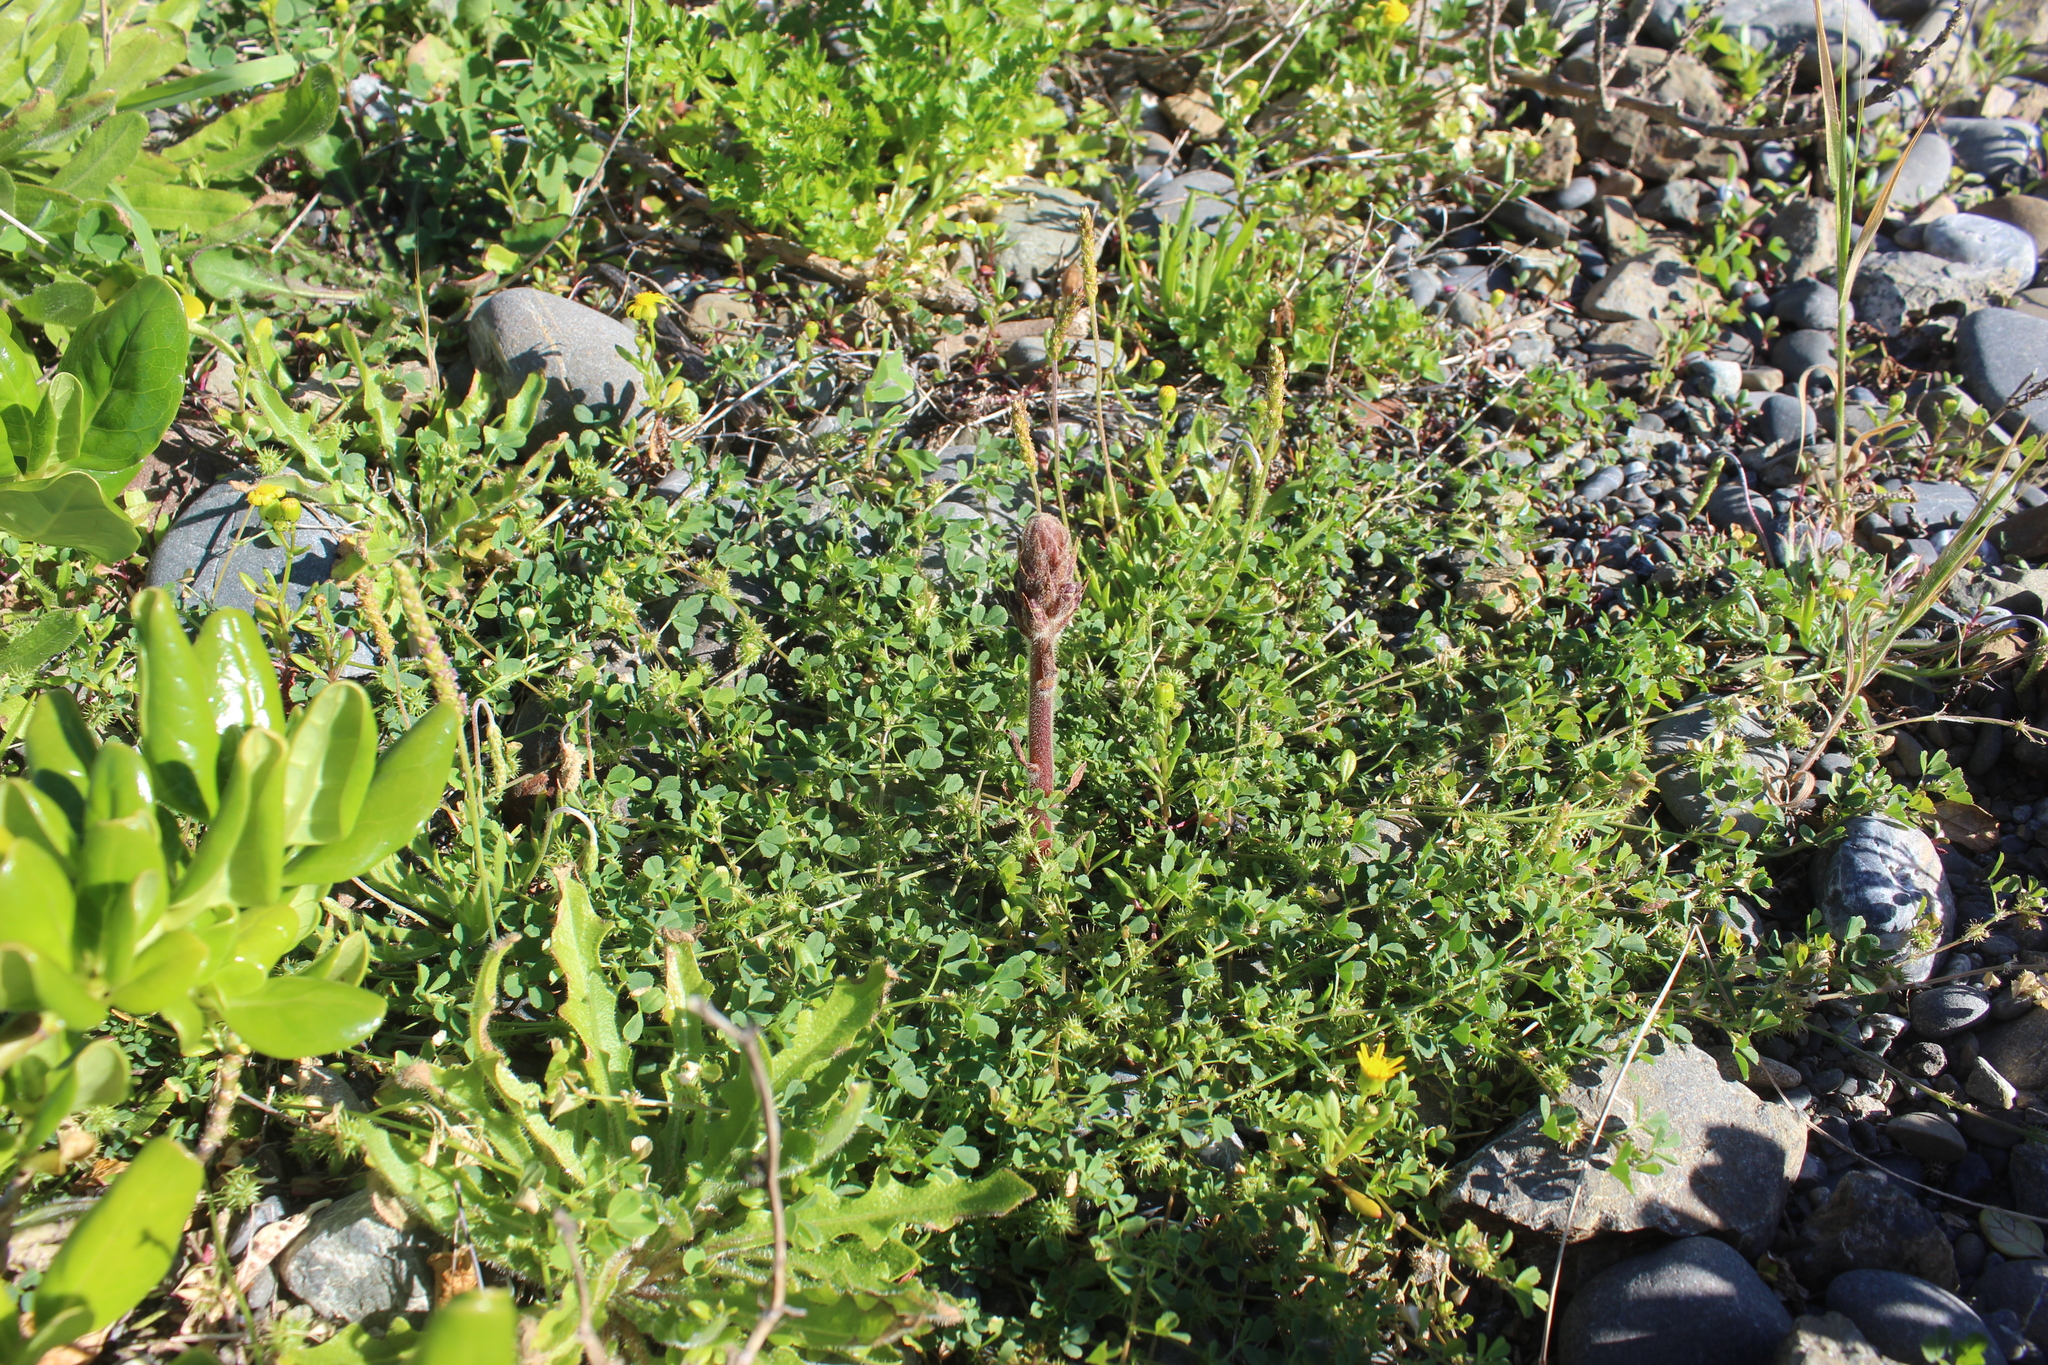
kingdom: Plantae
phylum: Tracheophyta
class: Magnoliopsida
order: Lamiales
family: Orobanchaceae
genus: Orobanche
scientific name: Orobanche minor
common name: Common broomrape
